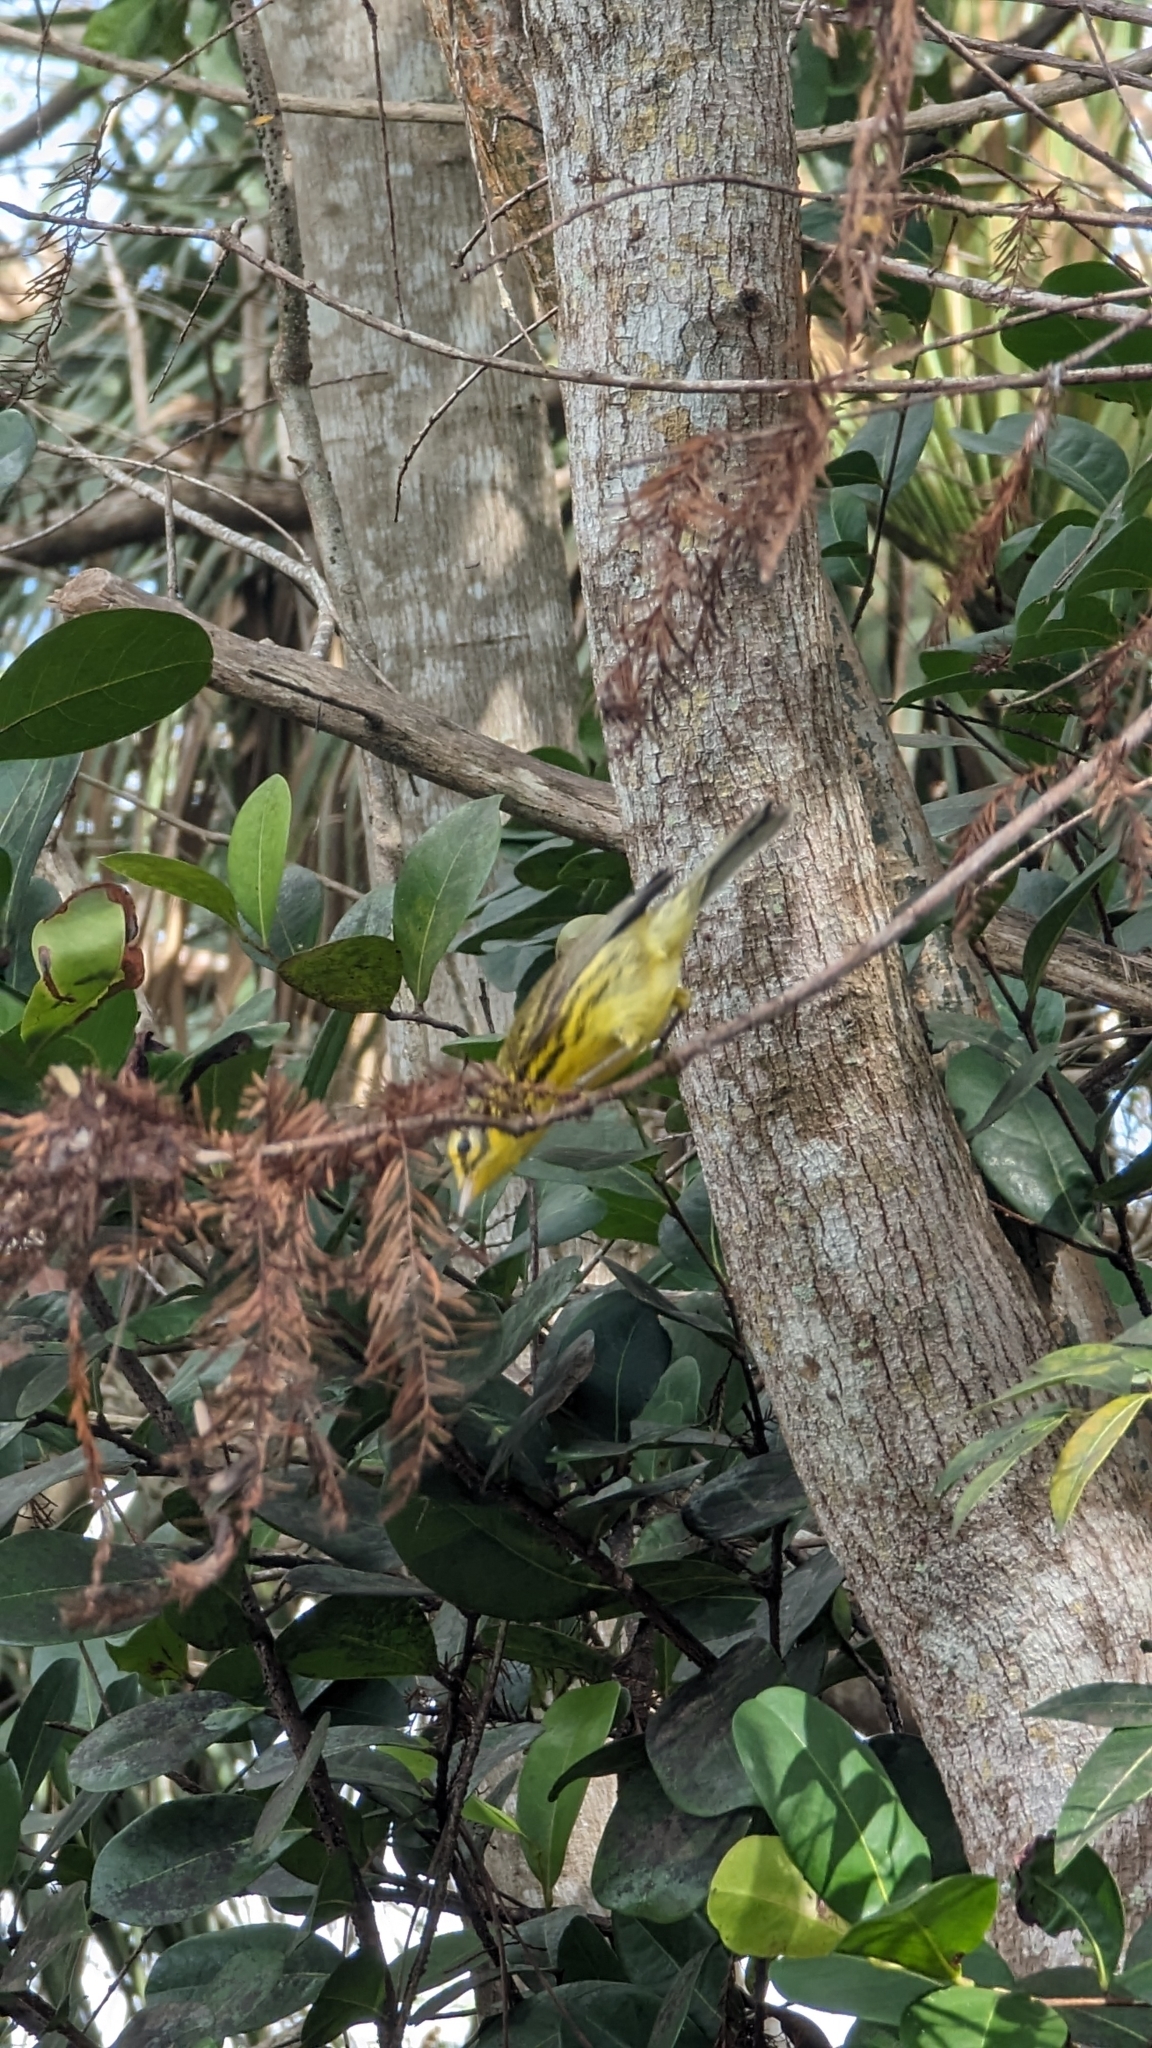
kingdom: Animalia
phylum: Chordata
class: Aves
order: Passeriformes
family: Parulidae
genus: Setophaga
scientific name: Setophaga discolor
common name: Prairie warbler
